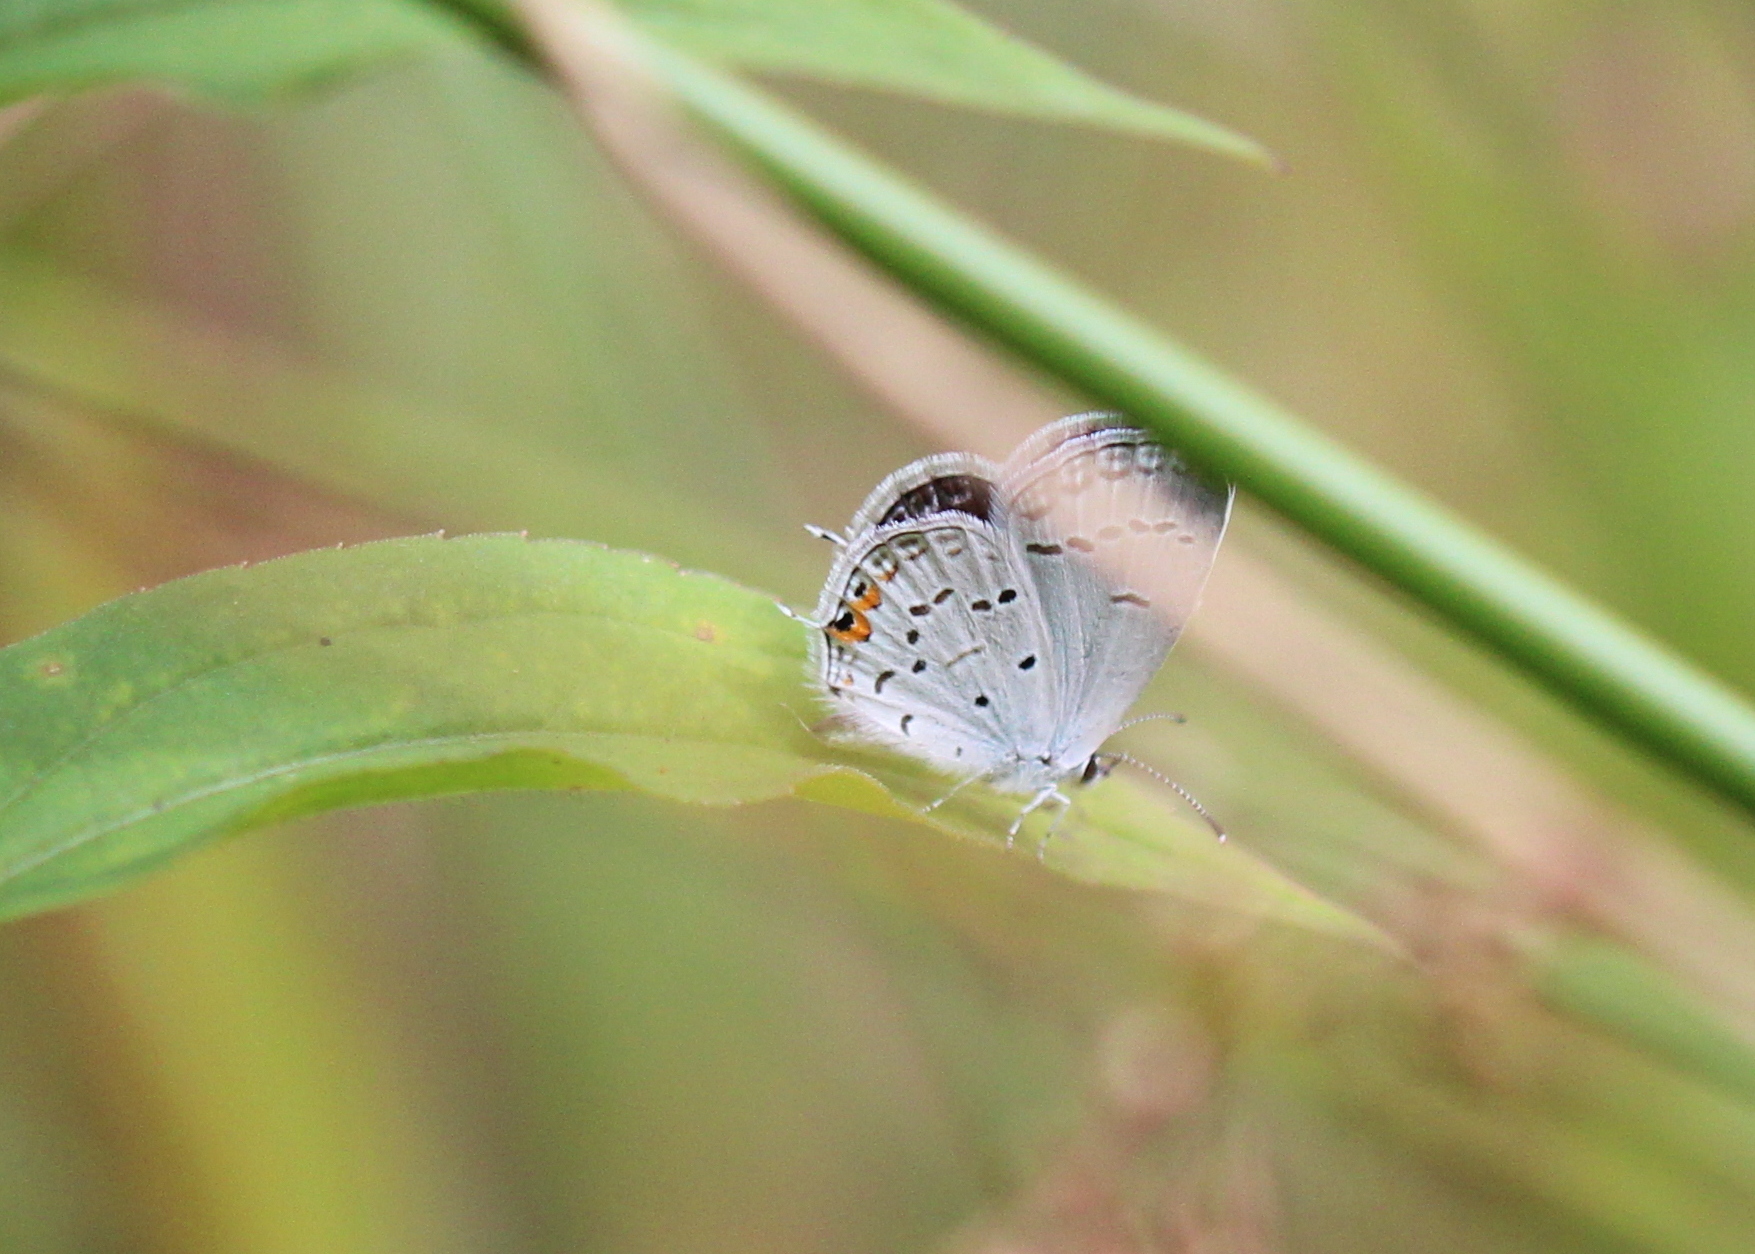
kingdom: Animalia
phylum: Arthropoda
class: Insecta
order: Lepidoptera
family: Lycaenidae
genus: Elkalyce
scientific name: Elkalyce comyntas
